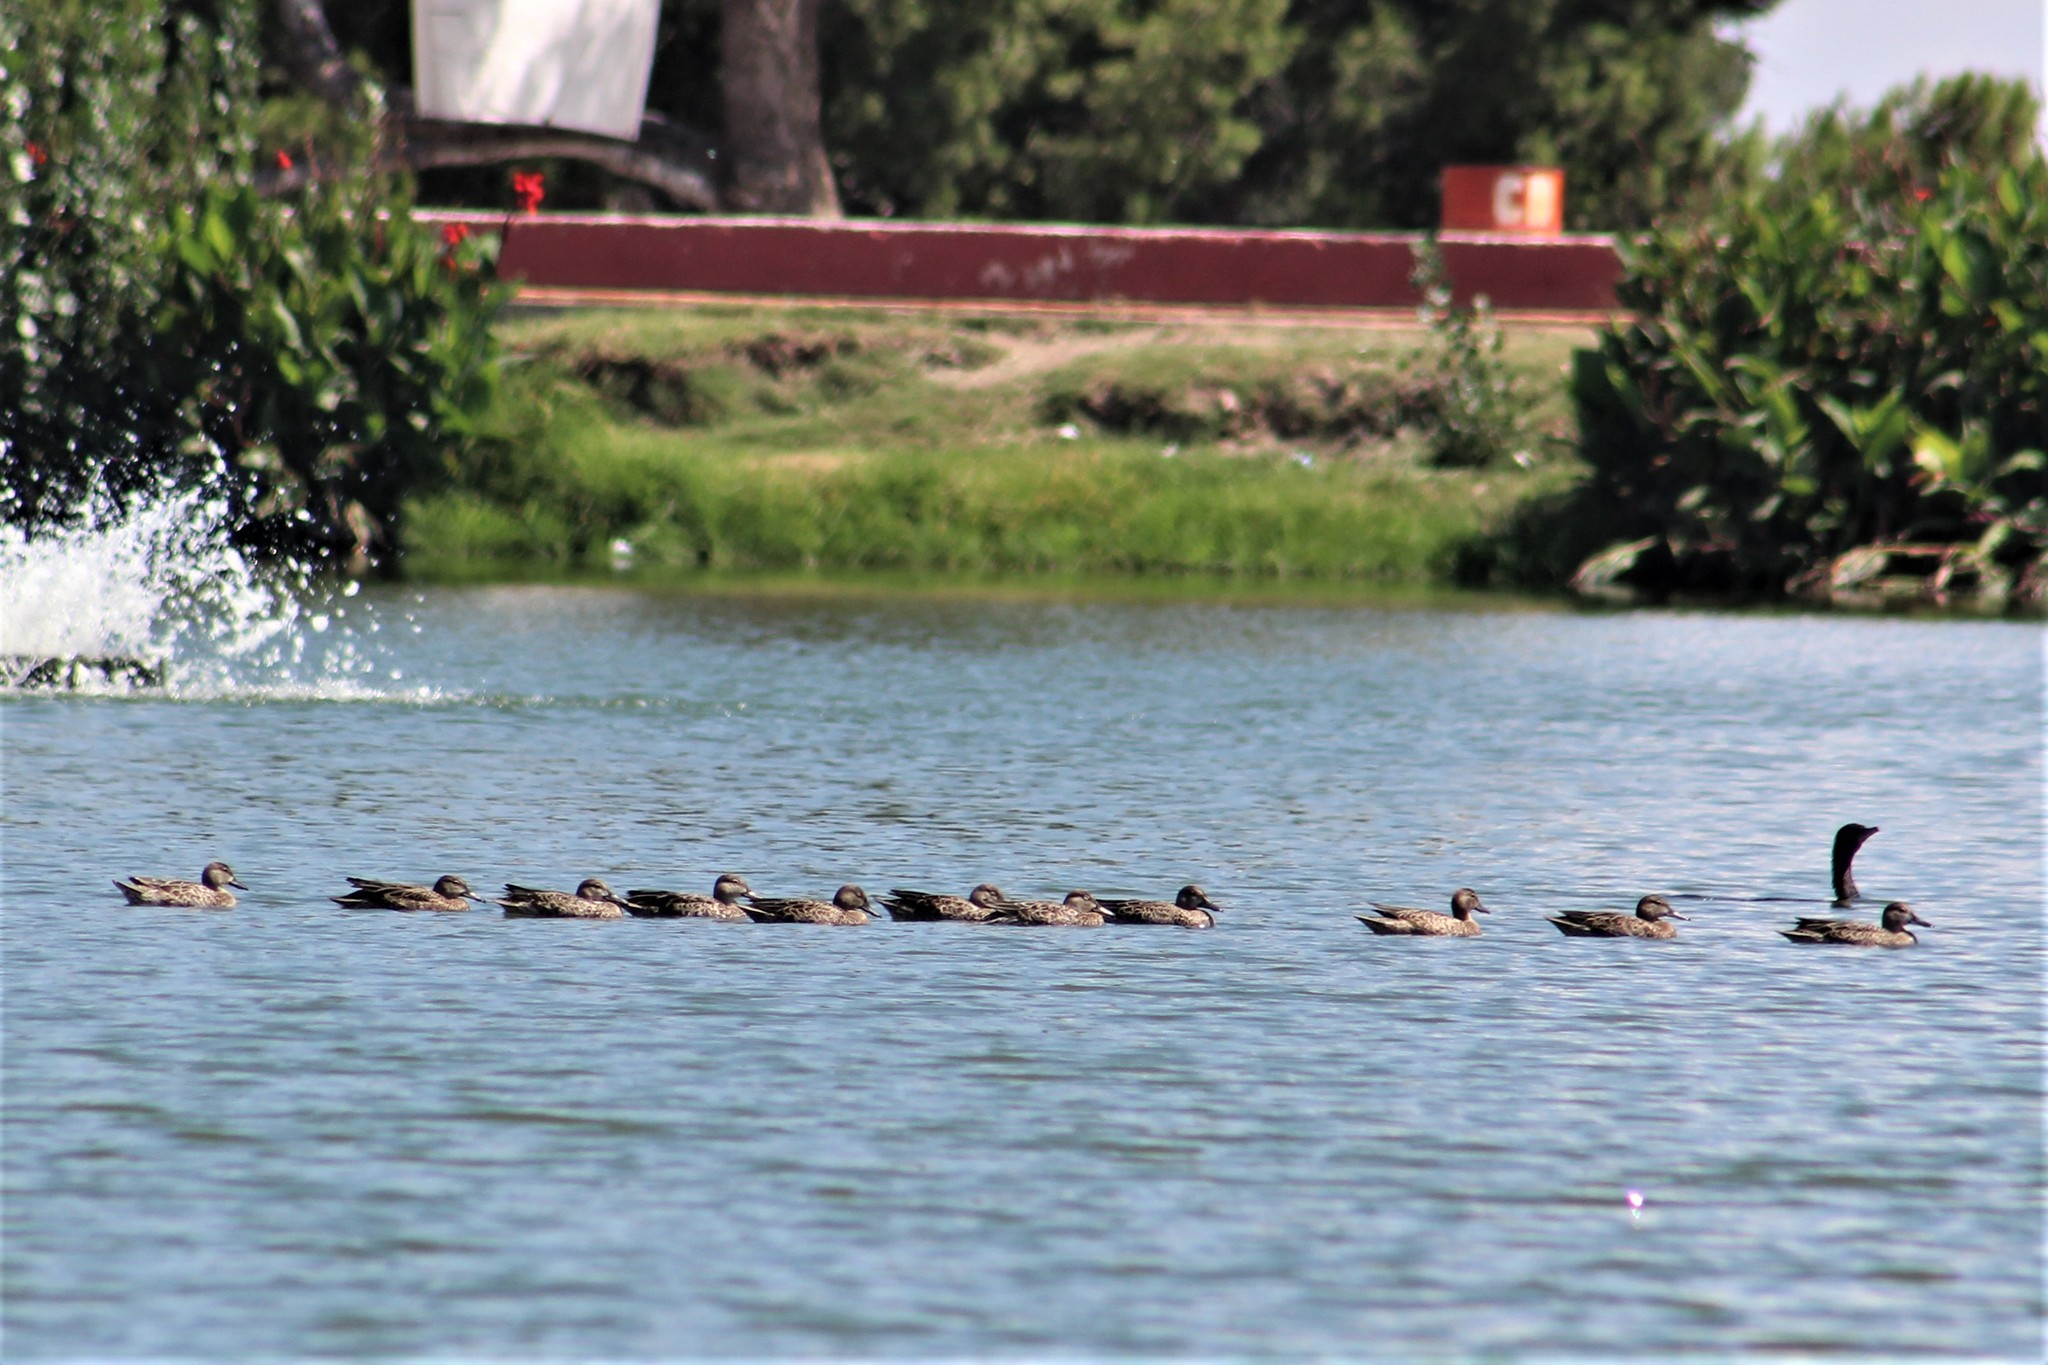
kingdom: Animalia
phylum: Chordata
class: Aves
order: Anseriformes
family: Anatidae
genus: Spatula
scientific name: Spatula discors
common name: Blue-winged teal
